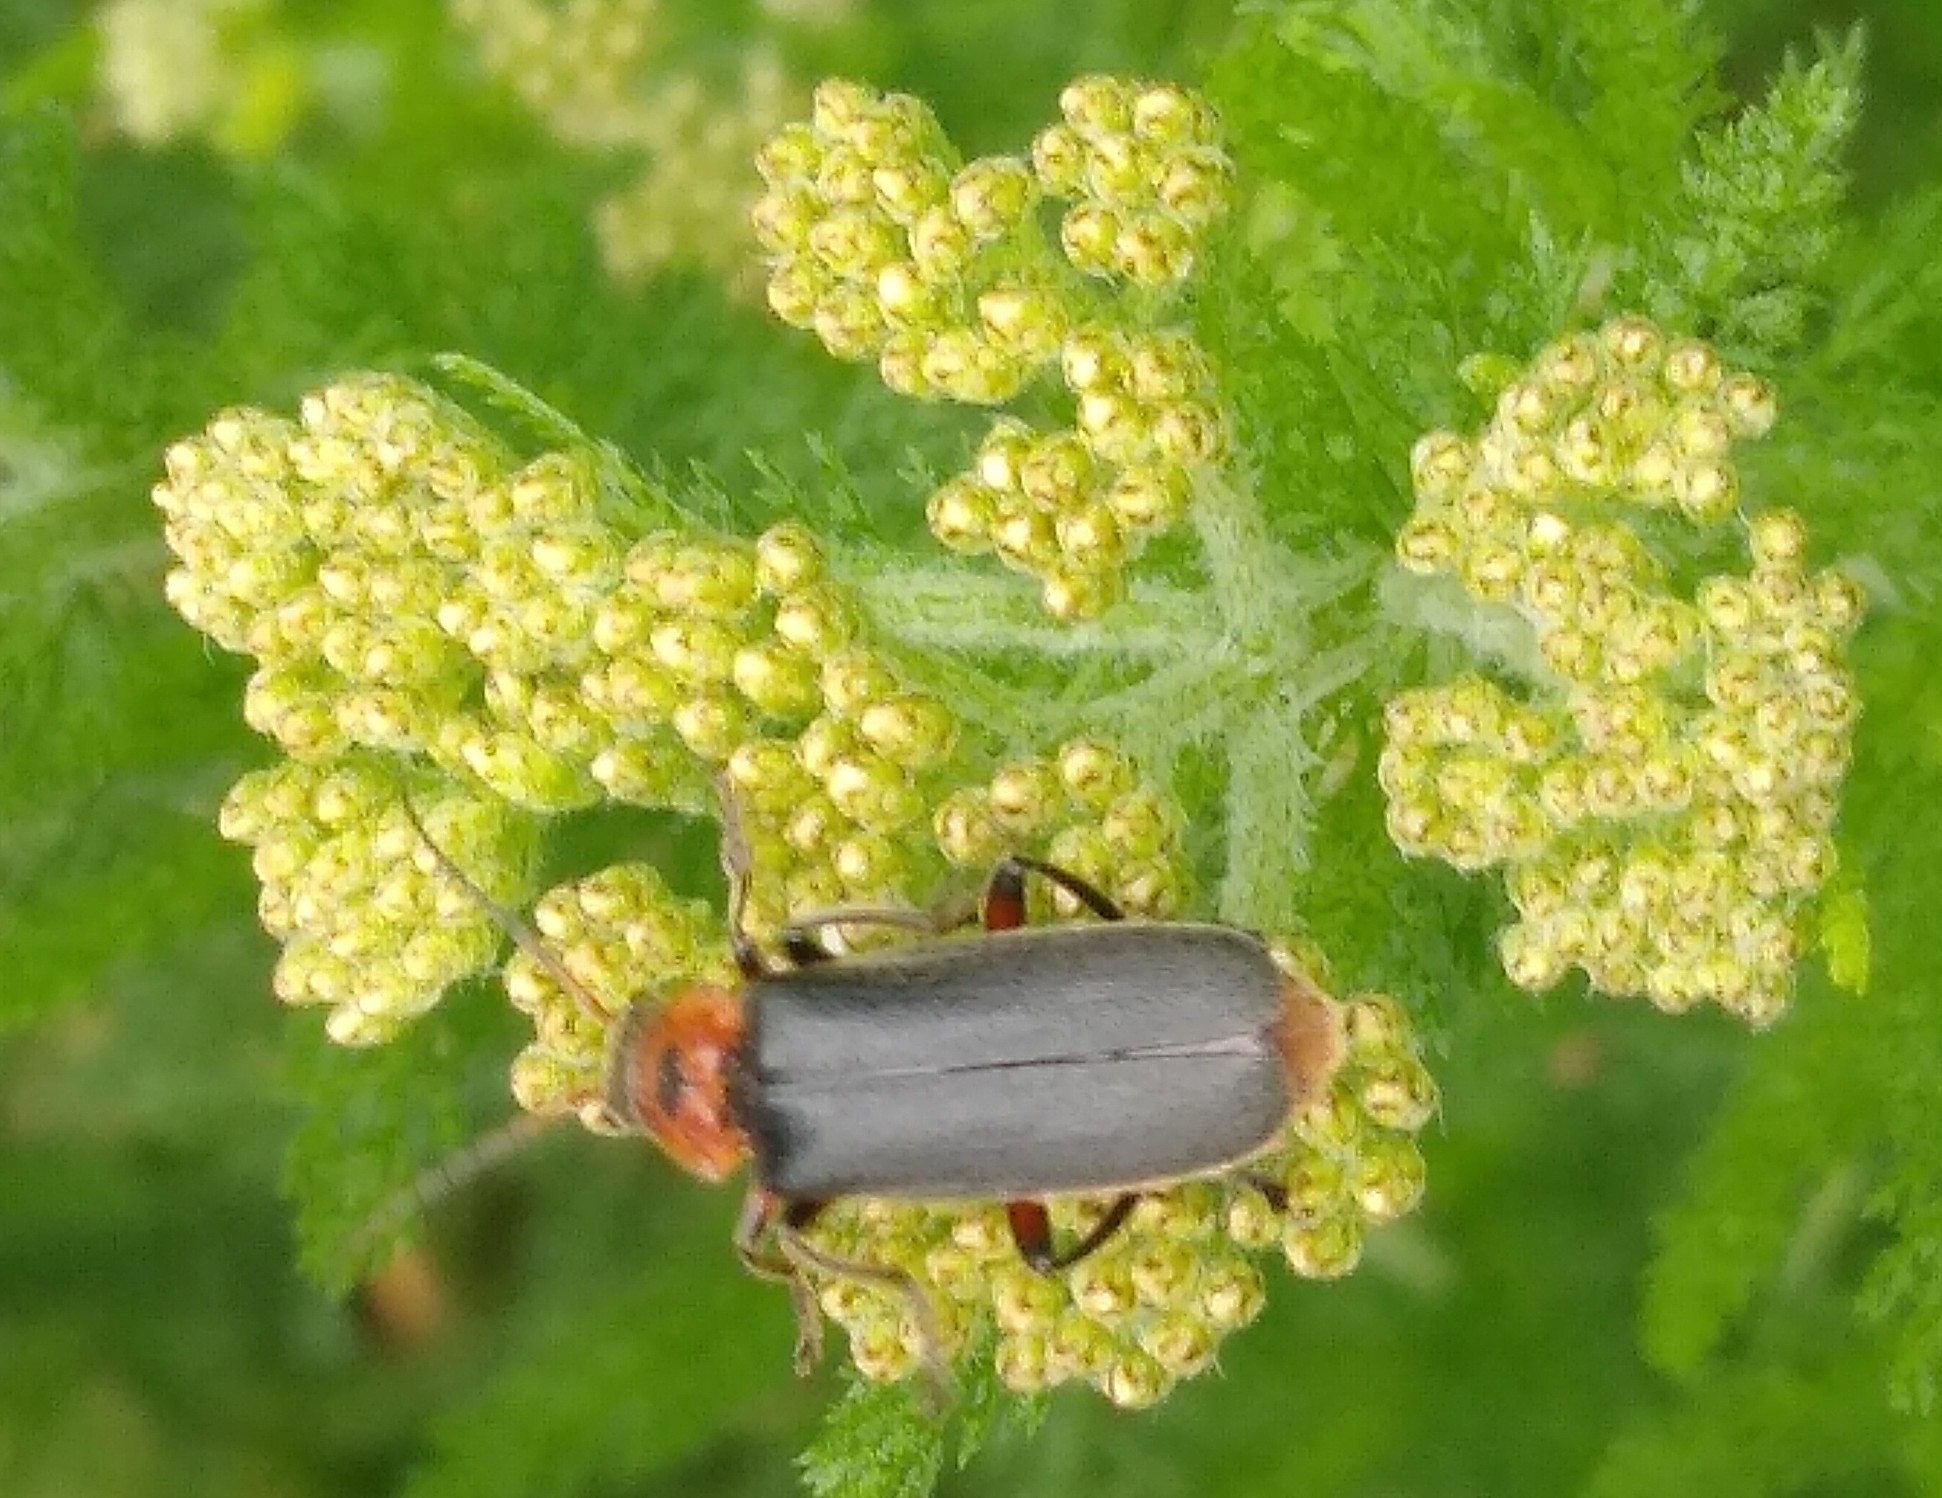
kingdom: Animalia
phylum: Arthropoda
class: Insecta
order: Coleoptera
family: Cantharidae
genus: Cantharis
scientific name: Cantharis rustica
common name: Soldier beetle
